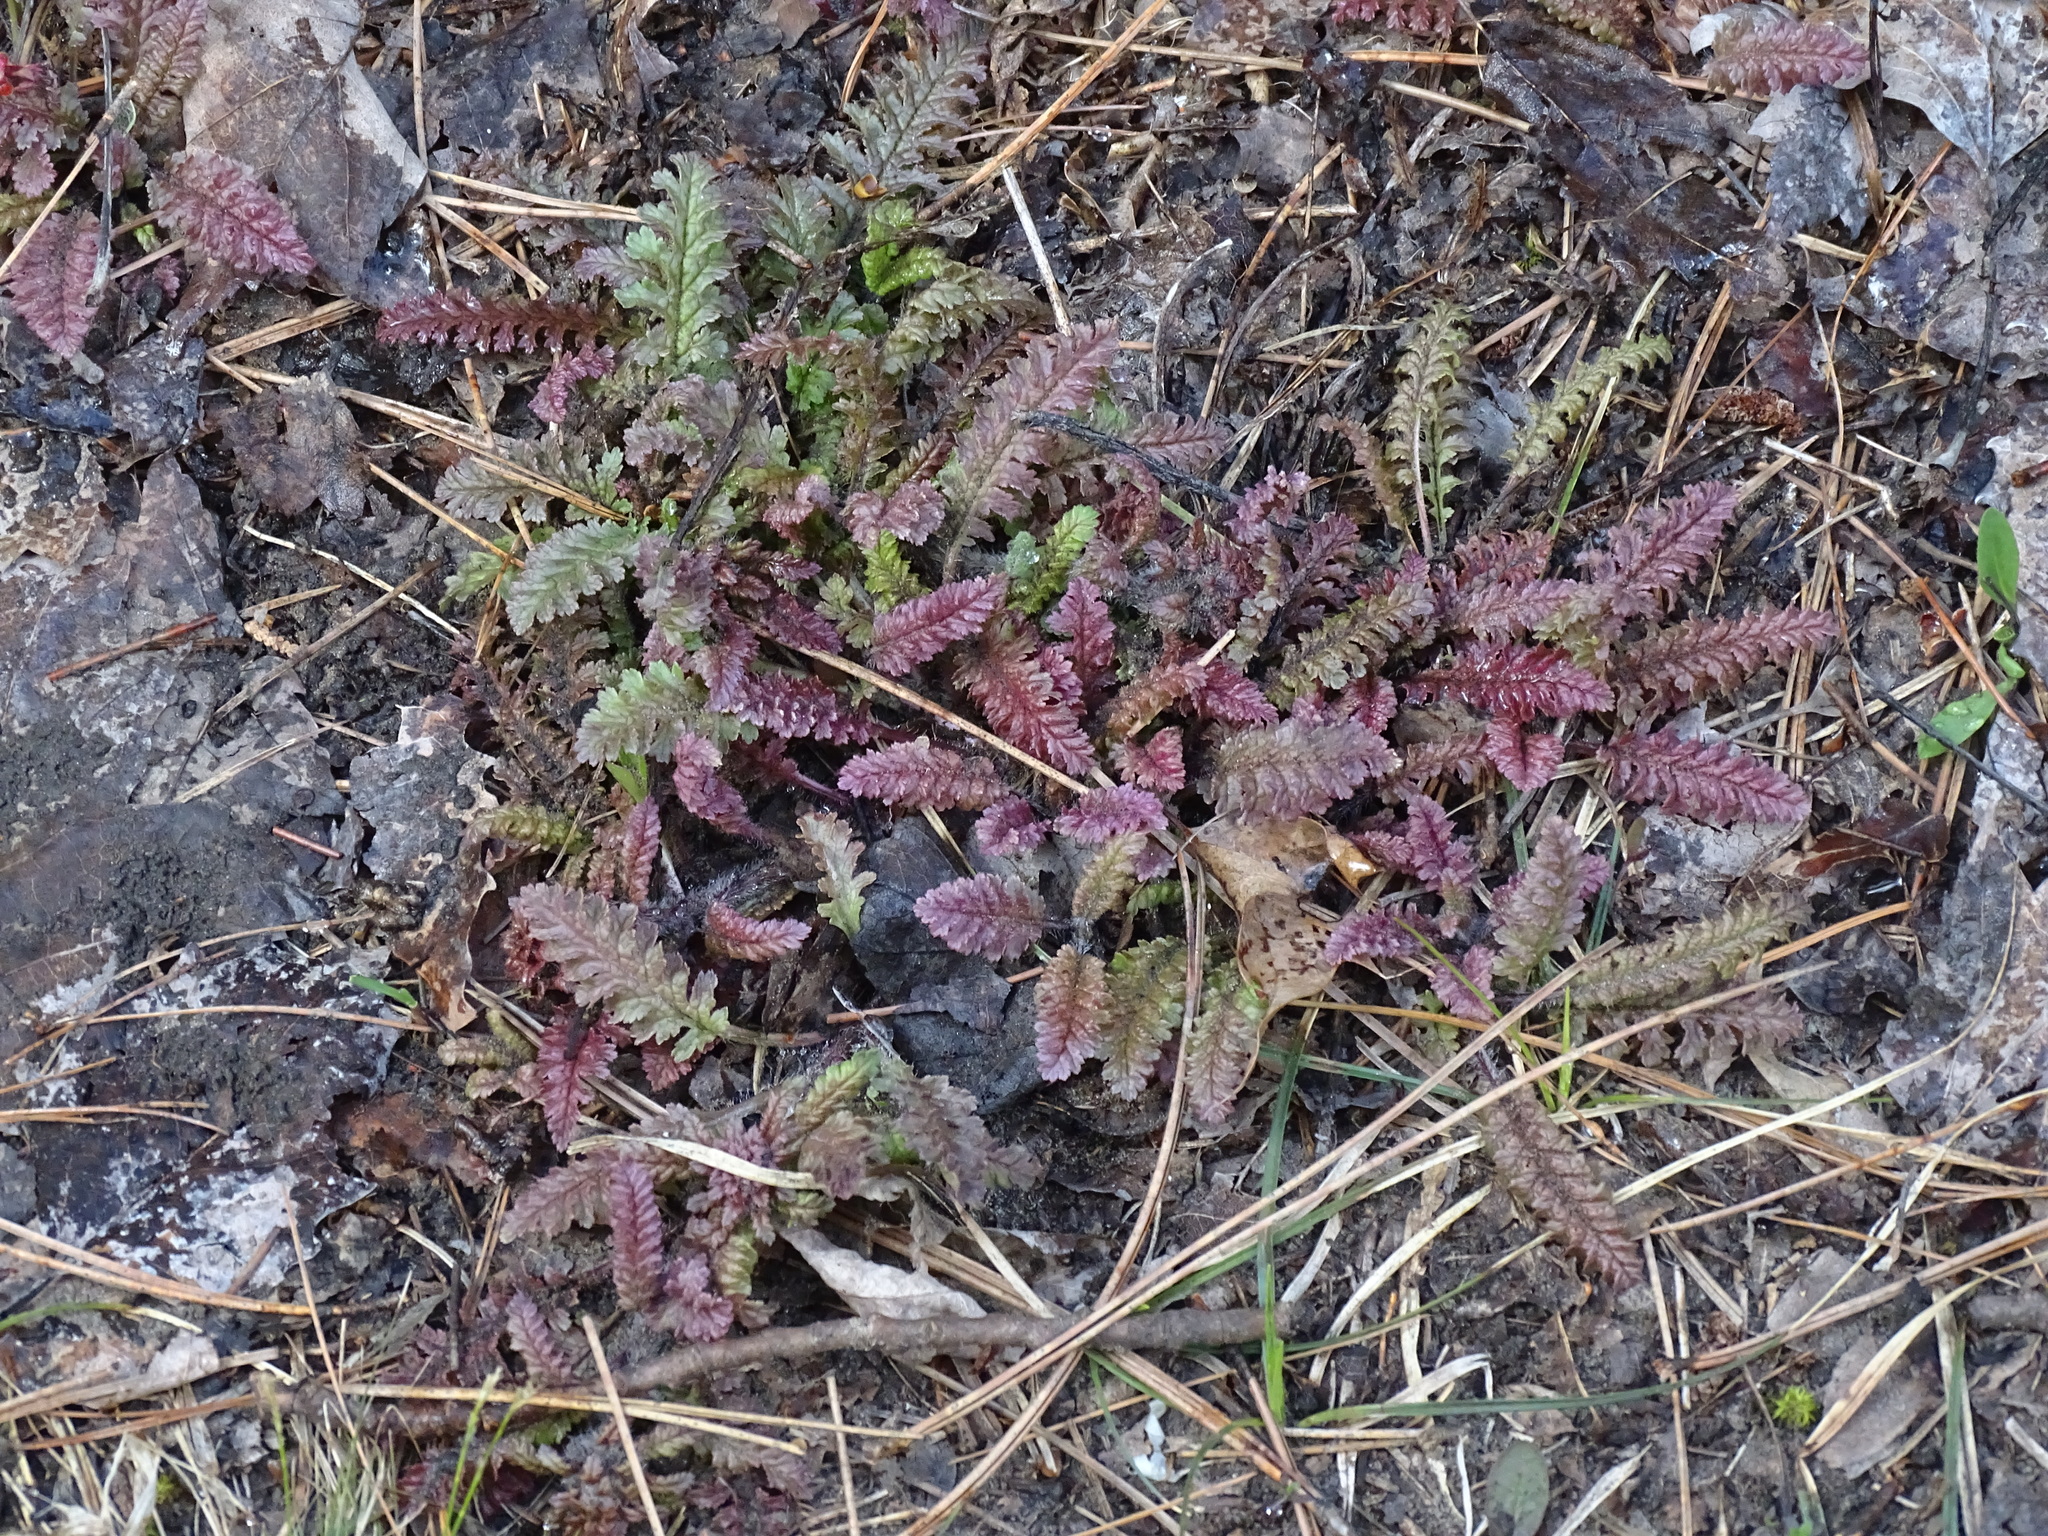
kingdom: Plantae
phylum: Tracheophyta
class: Magnoliopsida
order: Lamiales
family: Orobanchaceae
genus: Pedicularis
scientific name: Pedicularis canadensis
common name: Early lousewort
